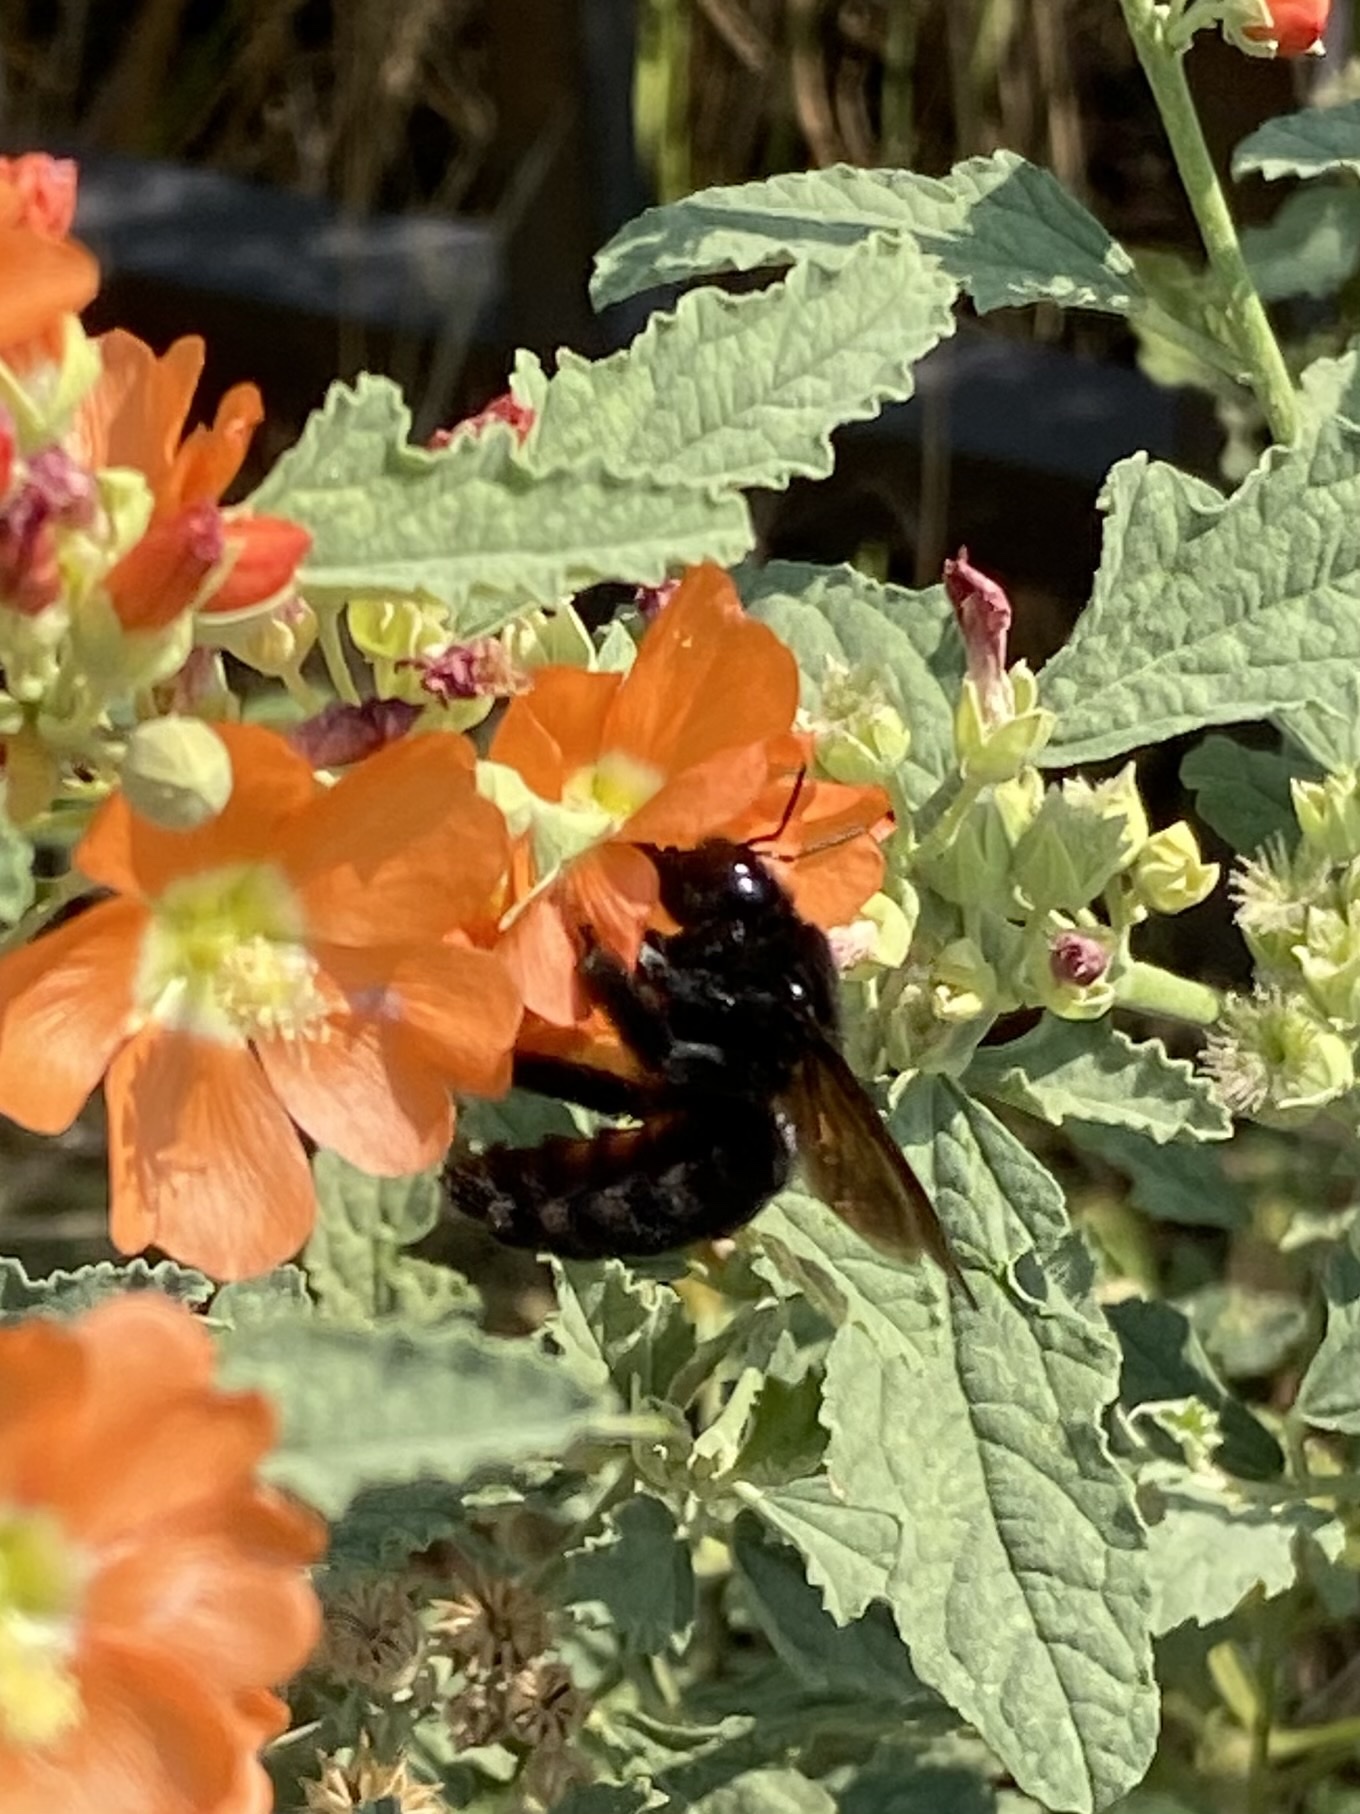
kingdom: Animalia
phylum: Arthropoda
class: Insecta
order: Hymenoptera
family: Apidae
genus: Xylocopa
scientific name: Xylocopa sonorina
